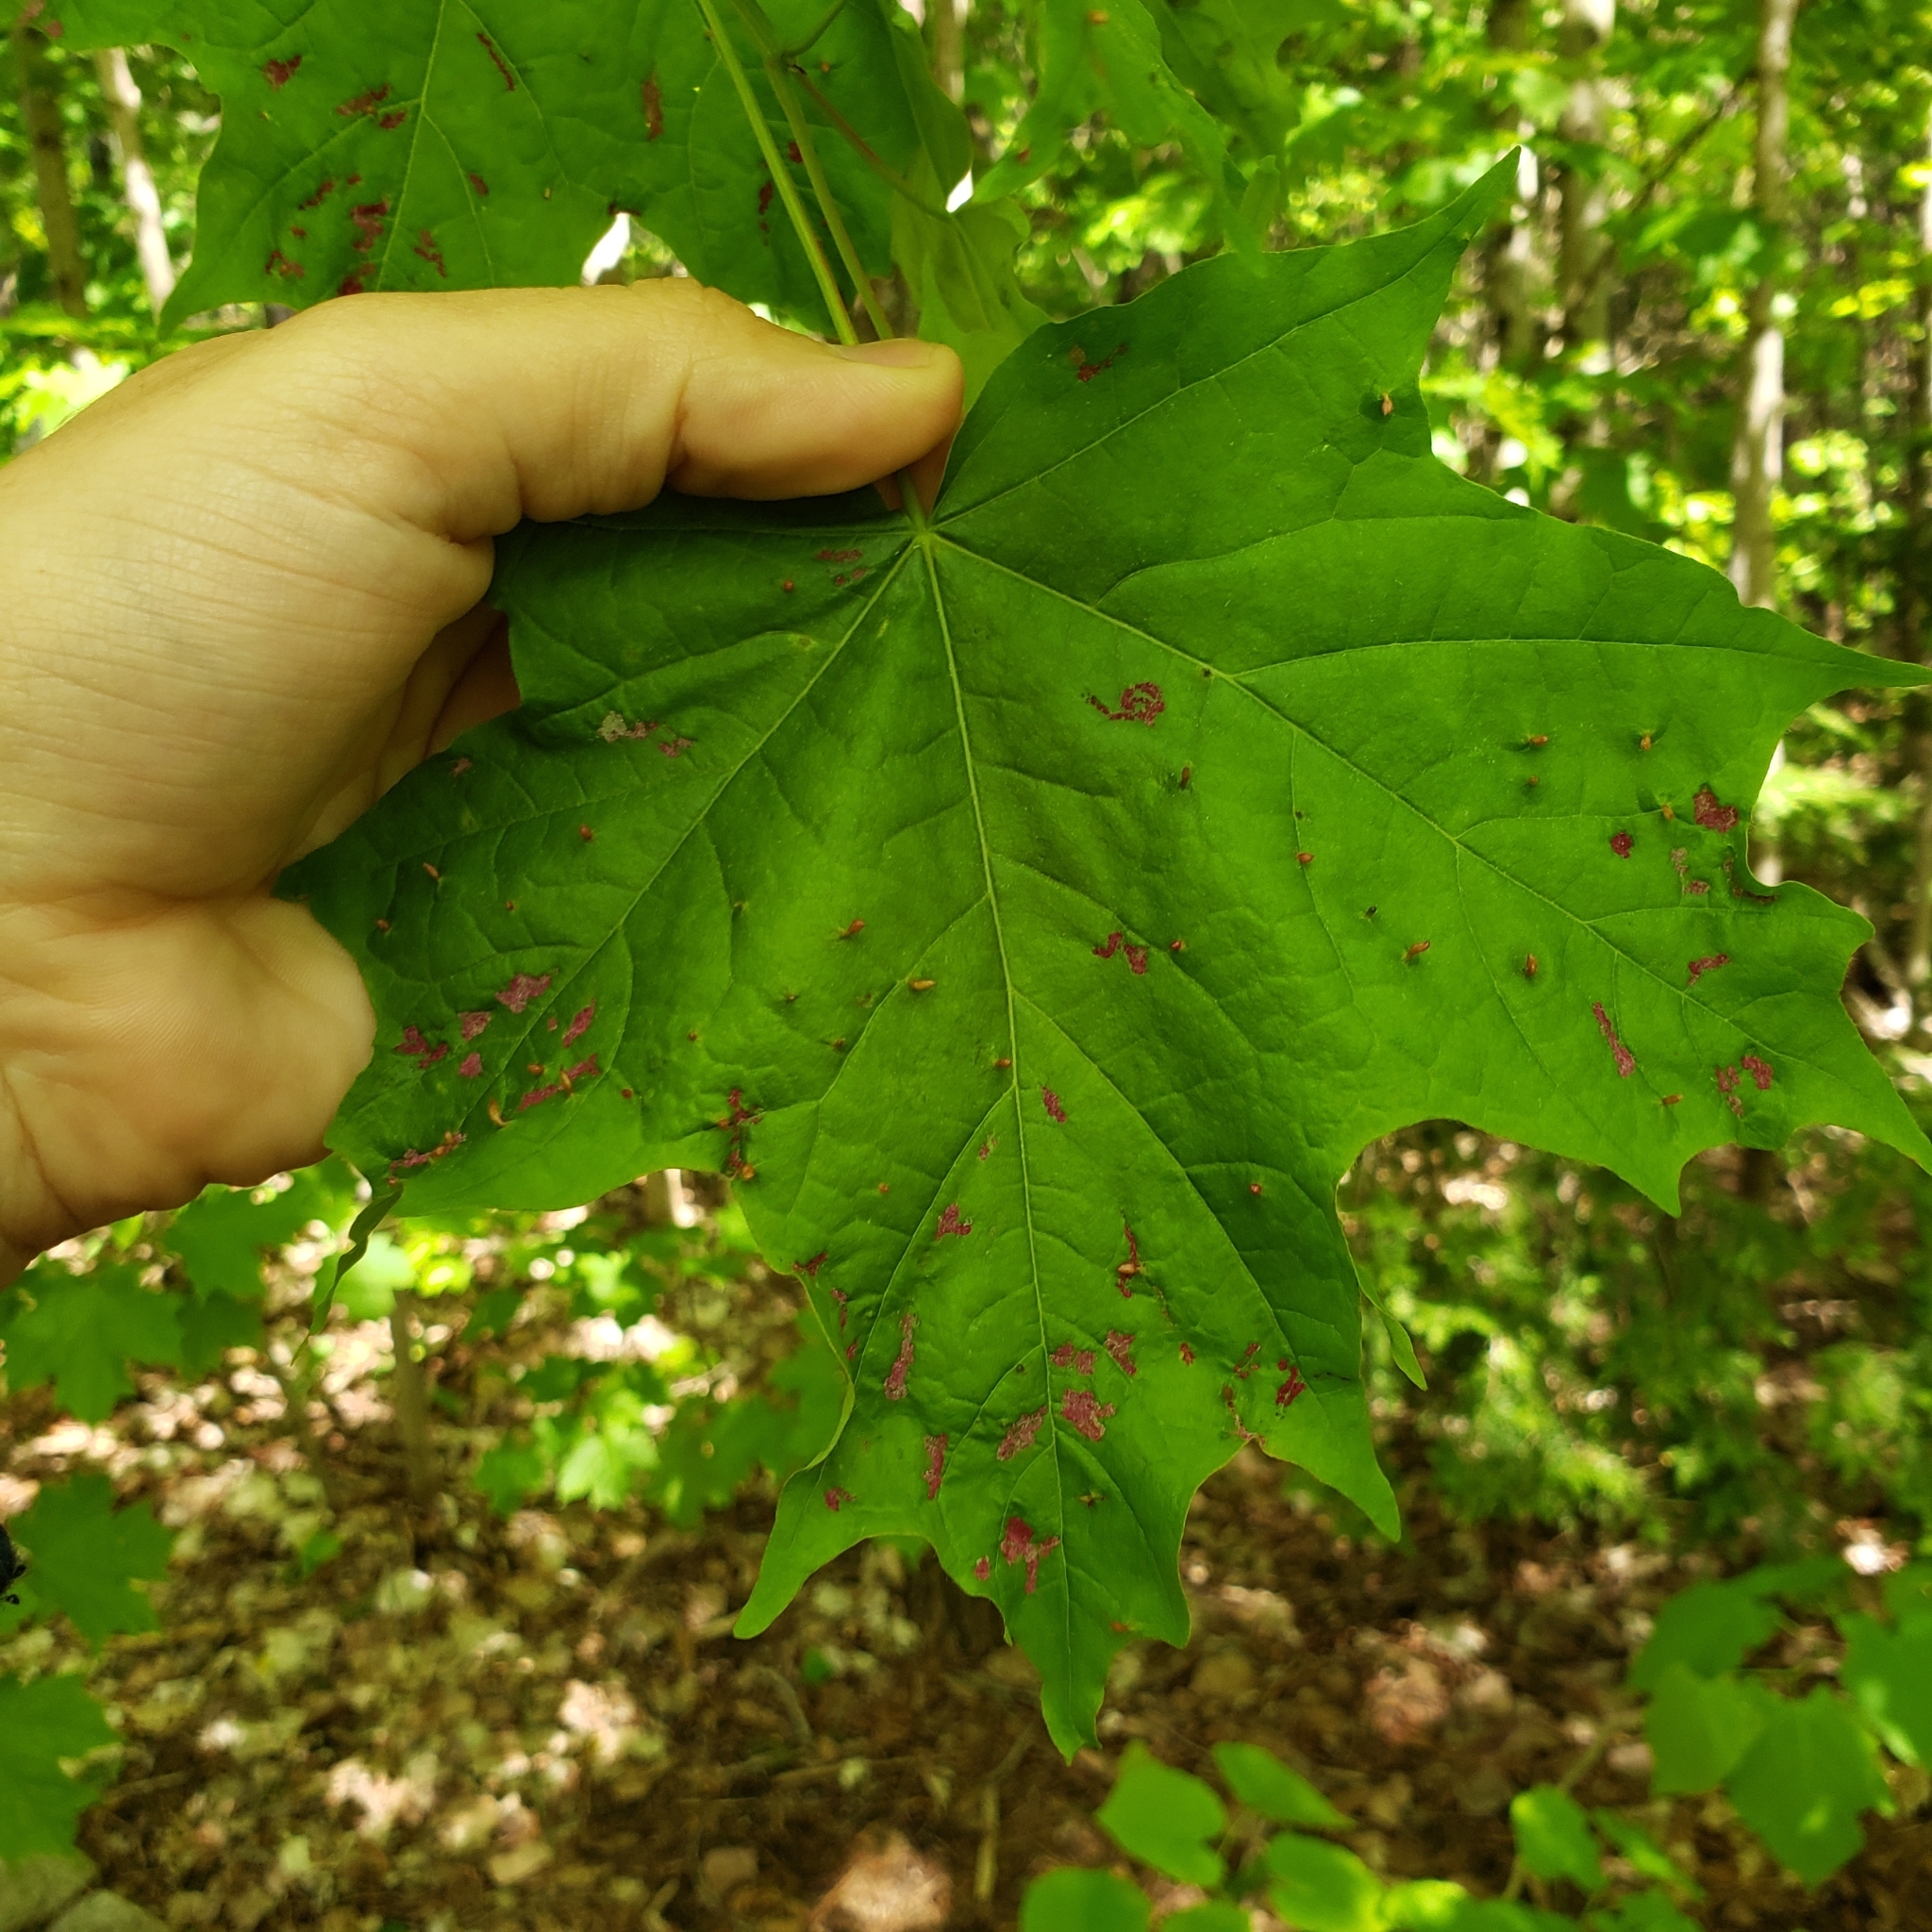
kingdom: Animalia
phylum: Arthropoda
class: Arachnida
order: Trombidiformes
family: Eriophyidae
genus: Aceria
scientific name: Aceria
